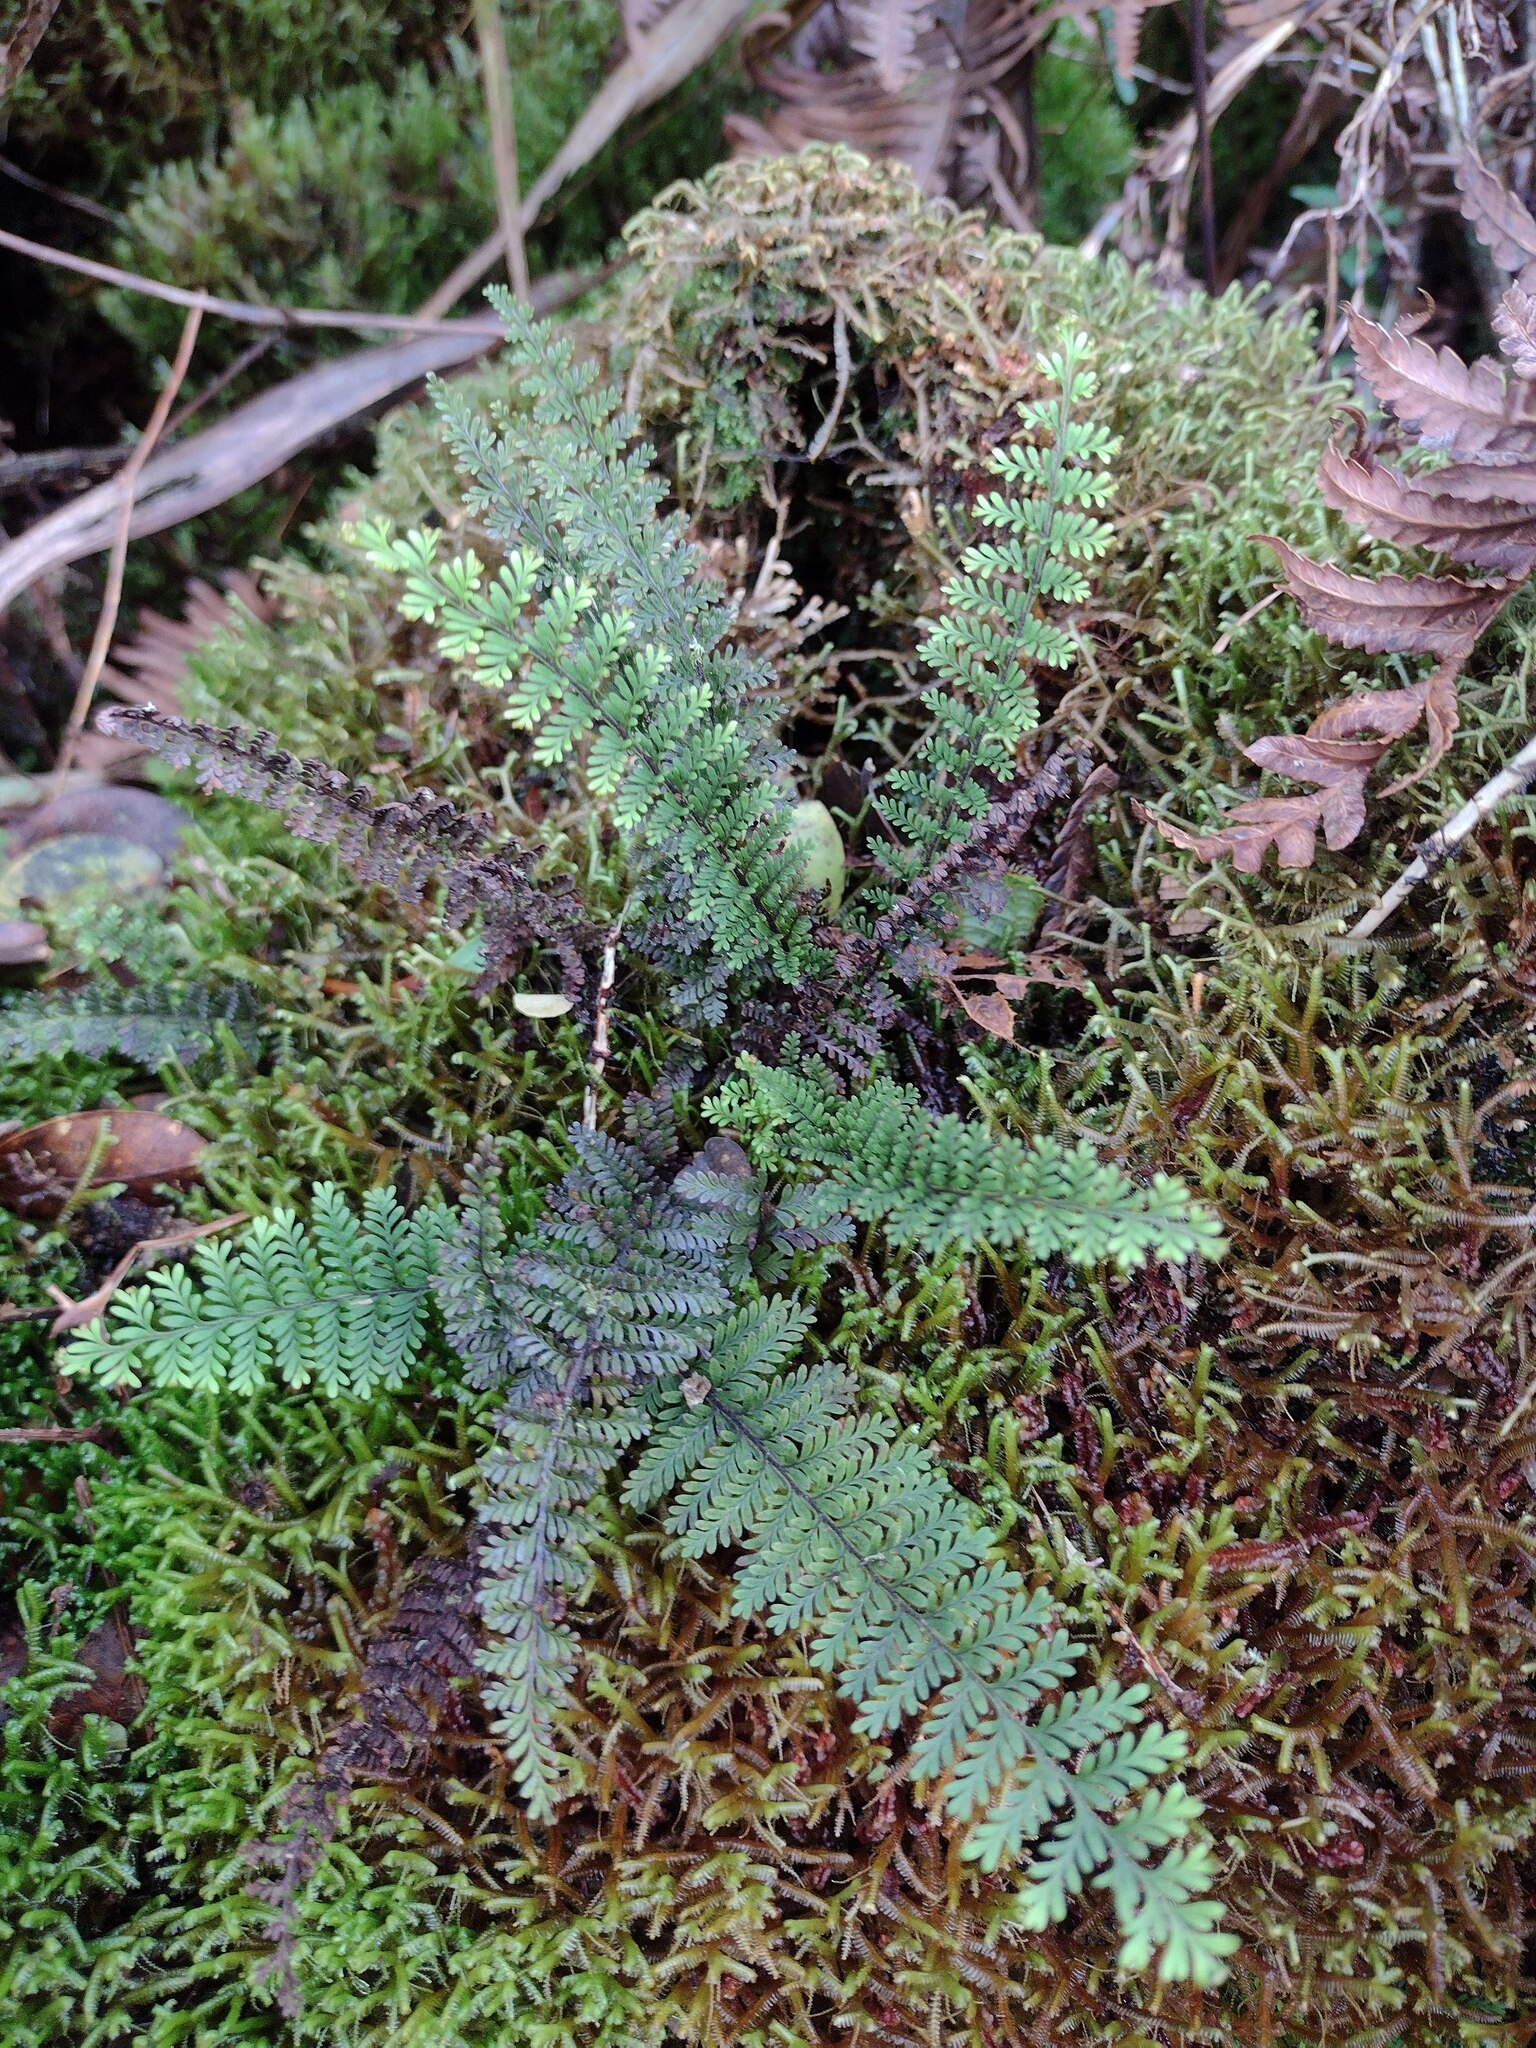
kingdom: Plantae
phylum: Tracheophyta
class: Polypodiopsida
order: Polypodiales
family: Polypodiaceae
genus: Adenophorus
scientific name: Adenophorus tamariscinus
